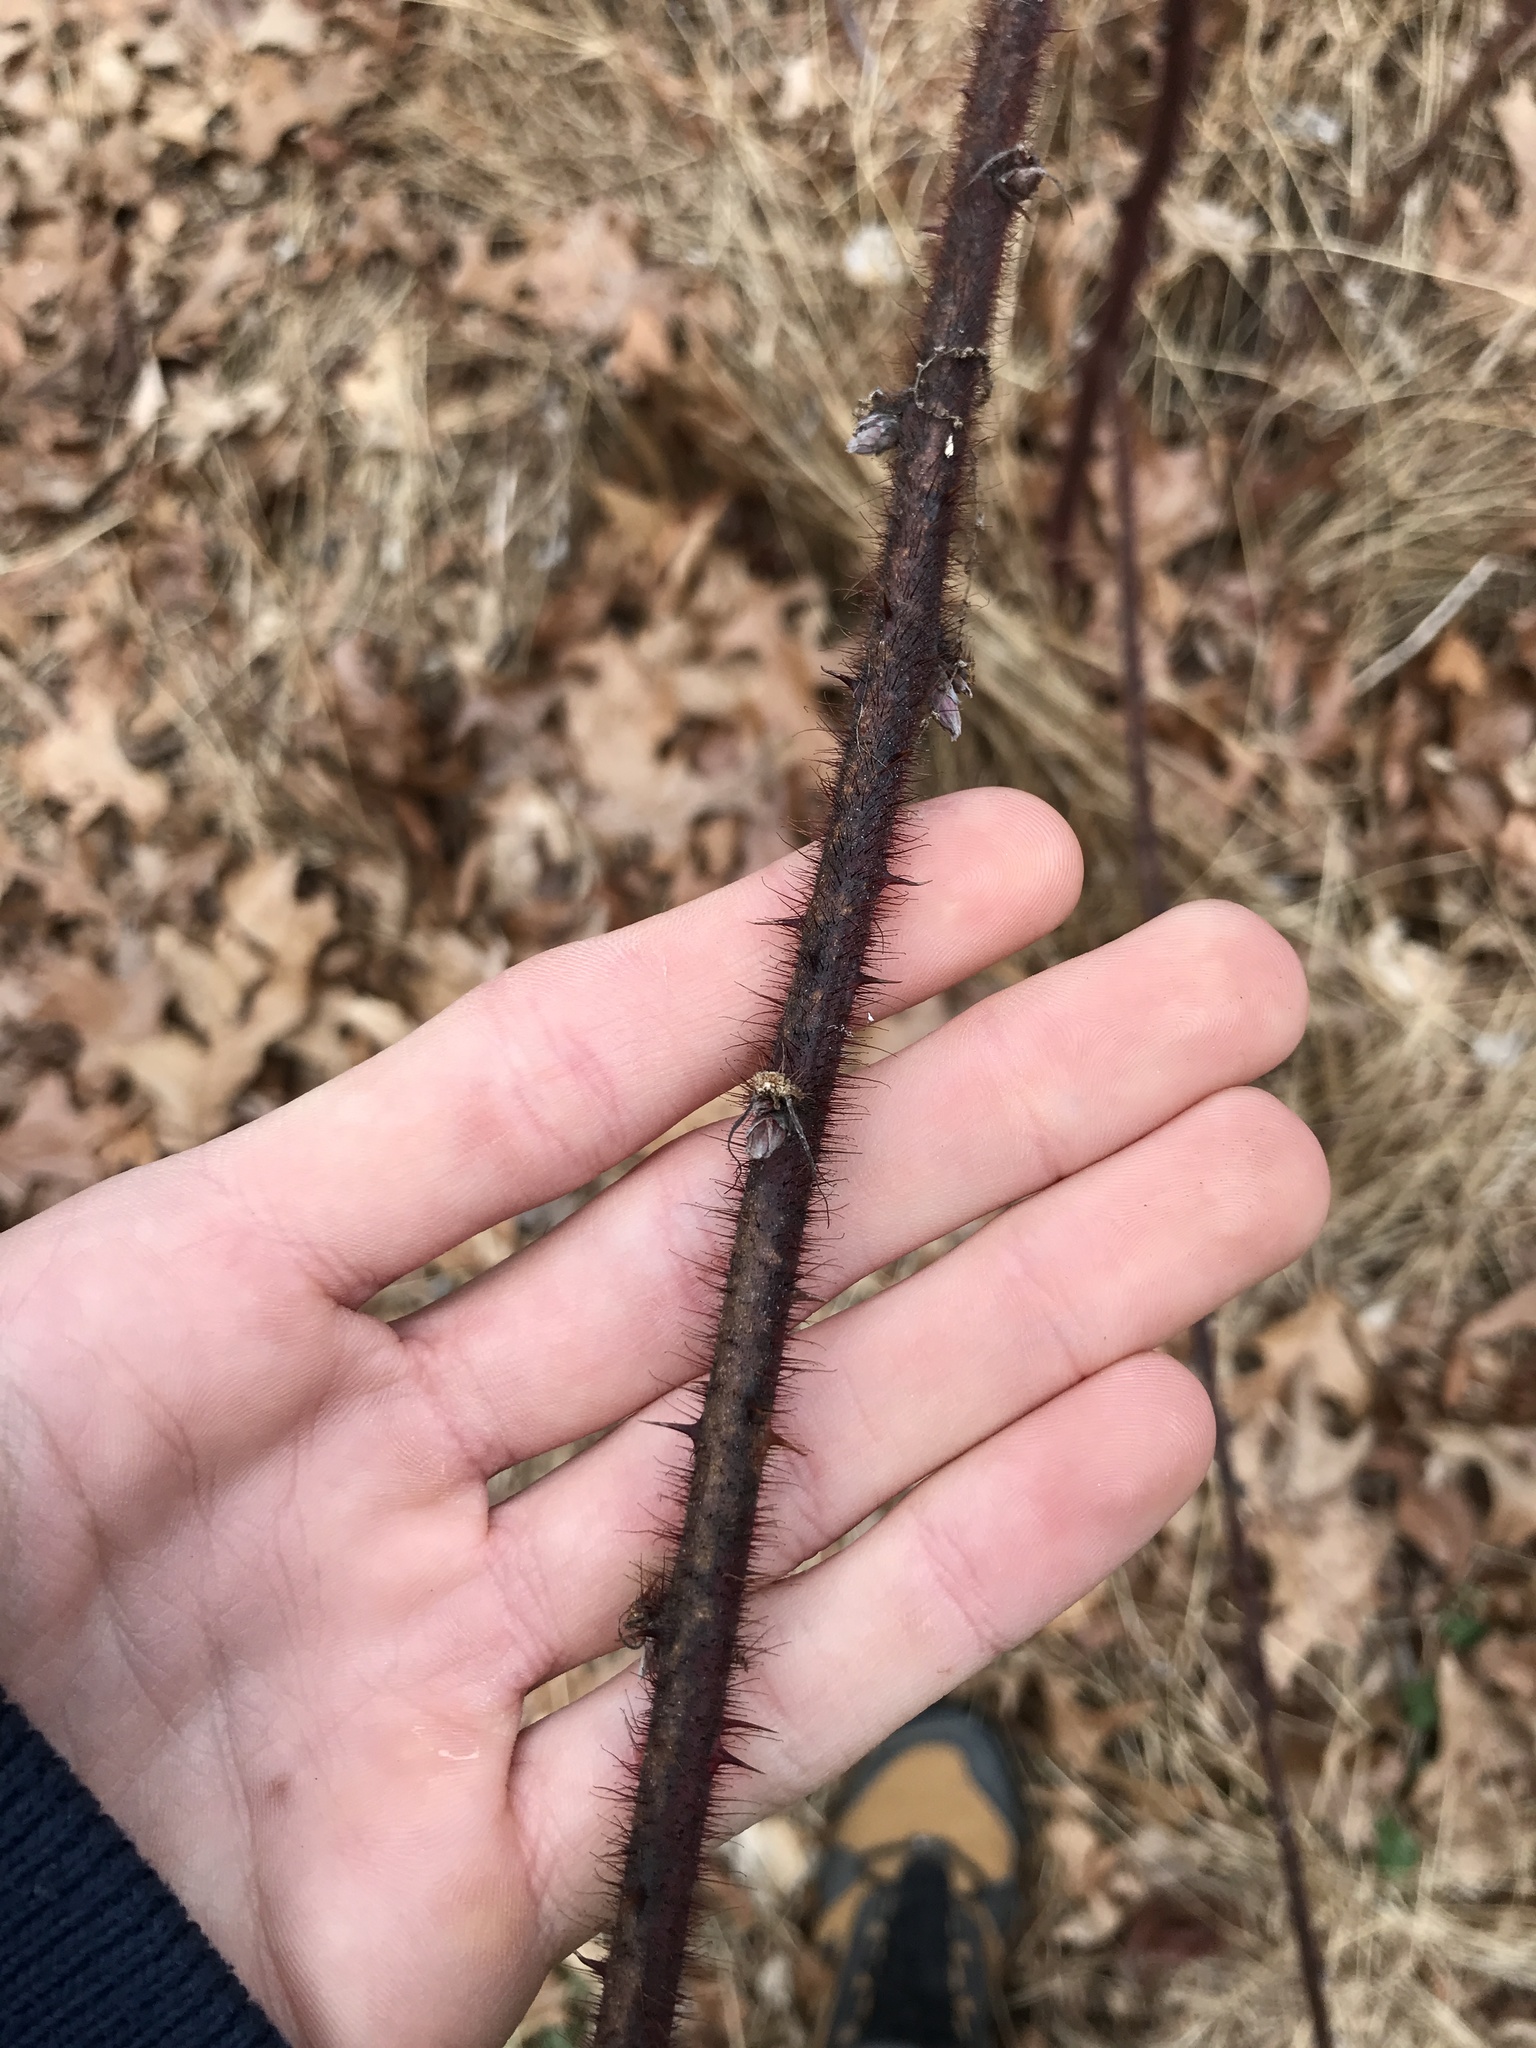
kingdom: Plantae
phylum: Tracheophyta
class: Magnoliopsida
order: Rosales
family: Rosaceae
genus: Rubus
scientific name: Rubus phoenicolasius
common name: Japanese wineberry
